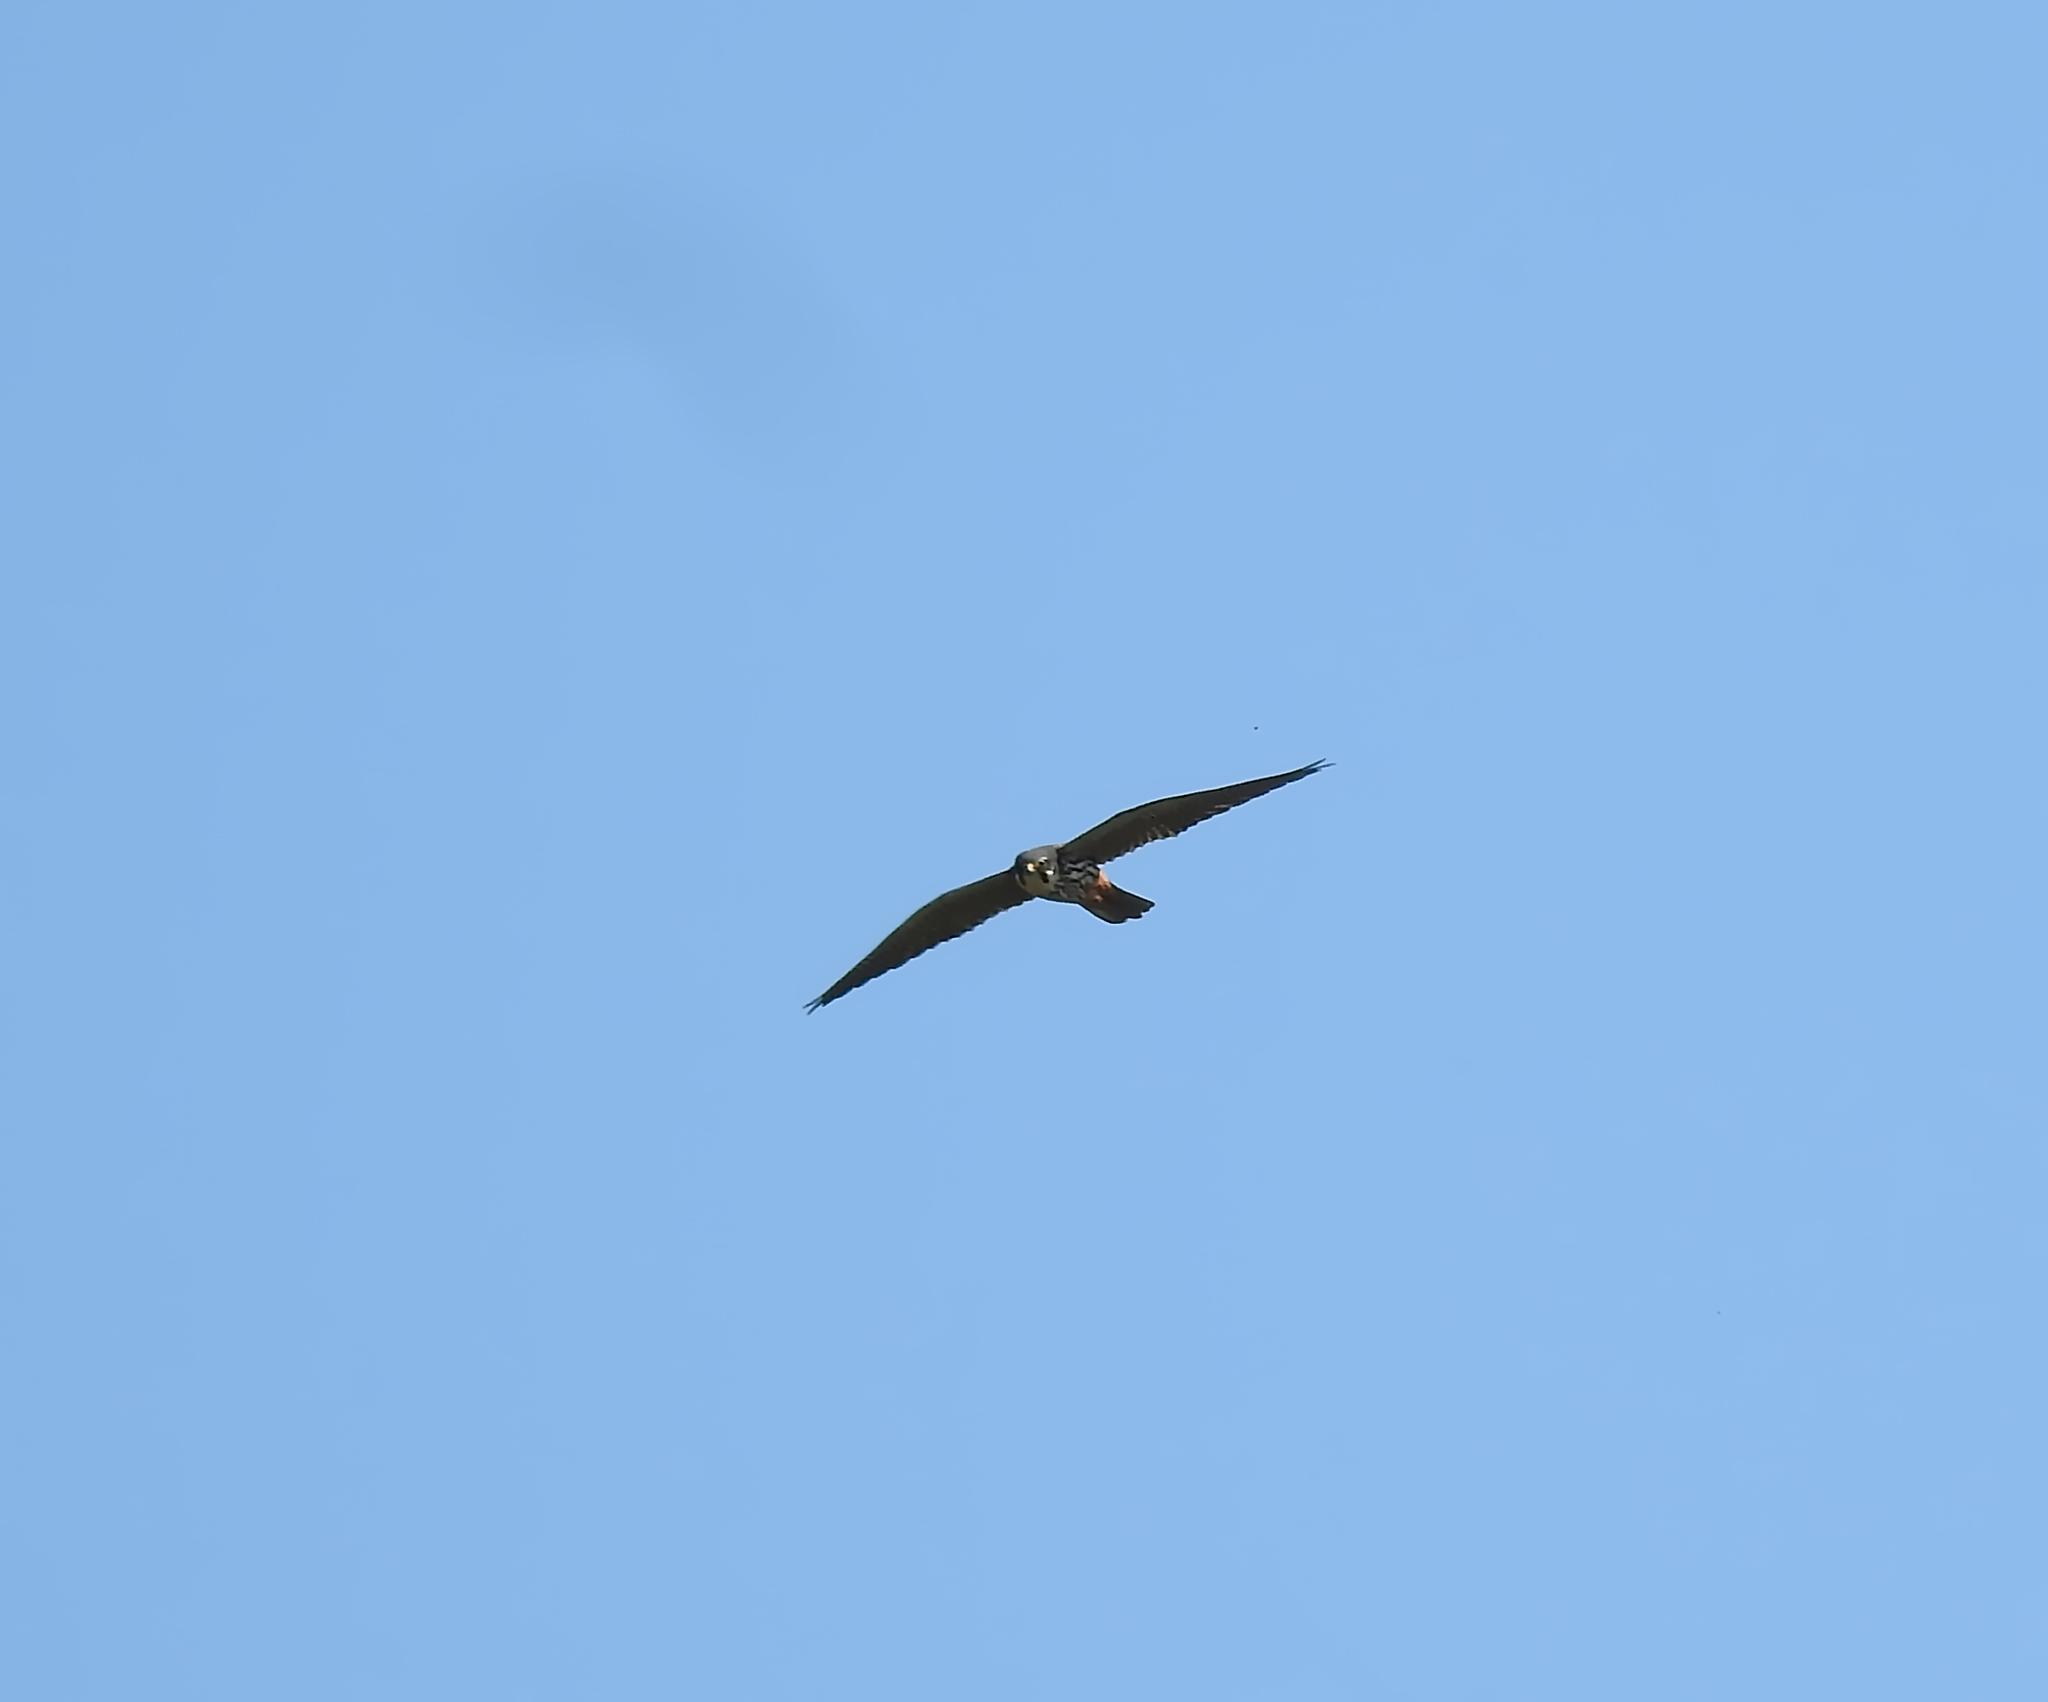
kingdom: Animalia
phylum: Chordata
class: Aves
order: Falconiformes
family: Falconidae
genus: Falco
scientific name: Falco subbuteo
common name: Eurasian hobby
